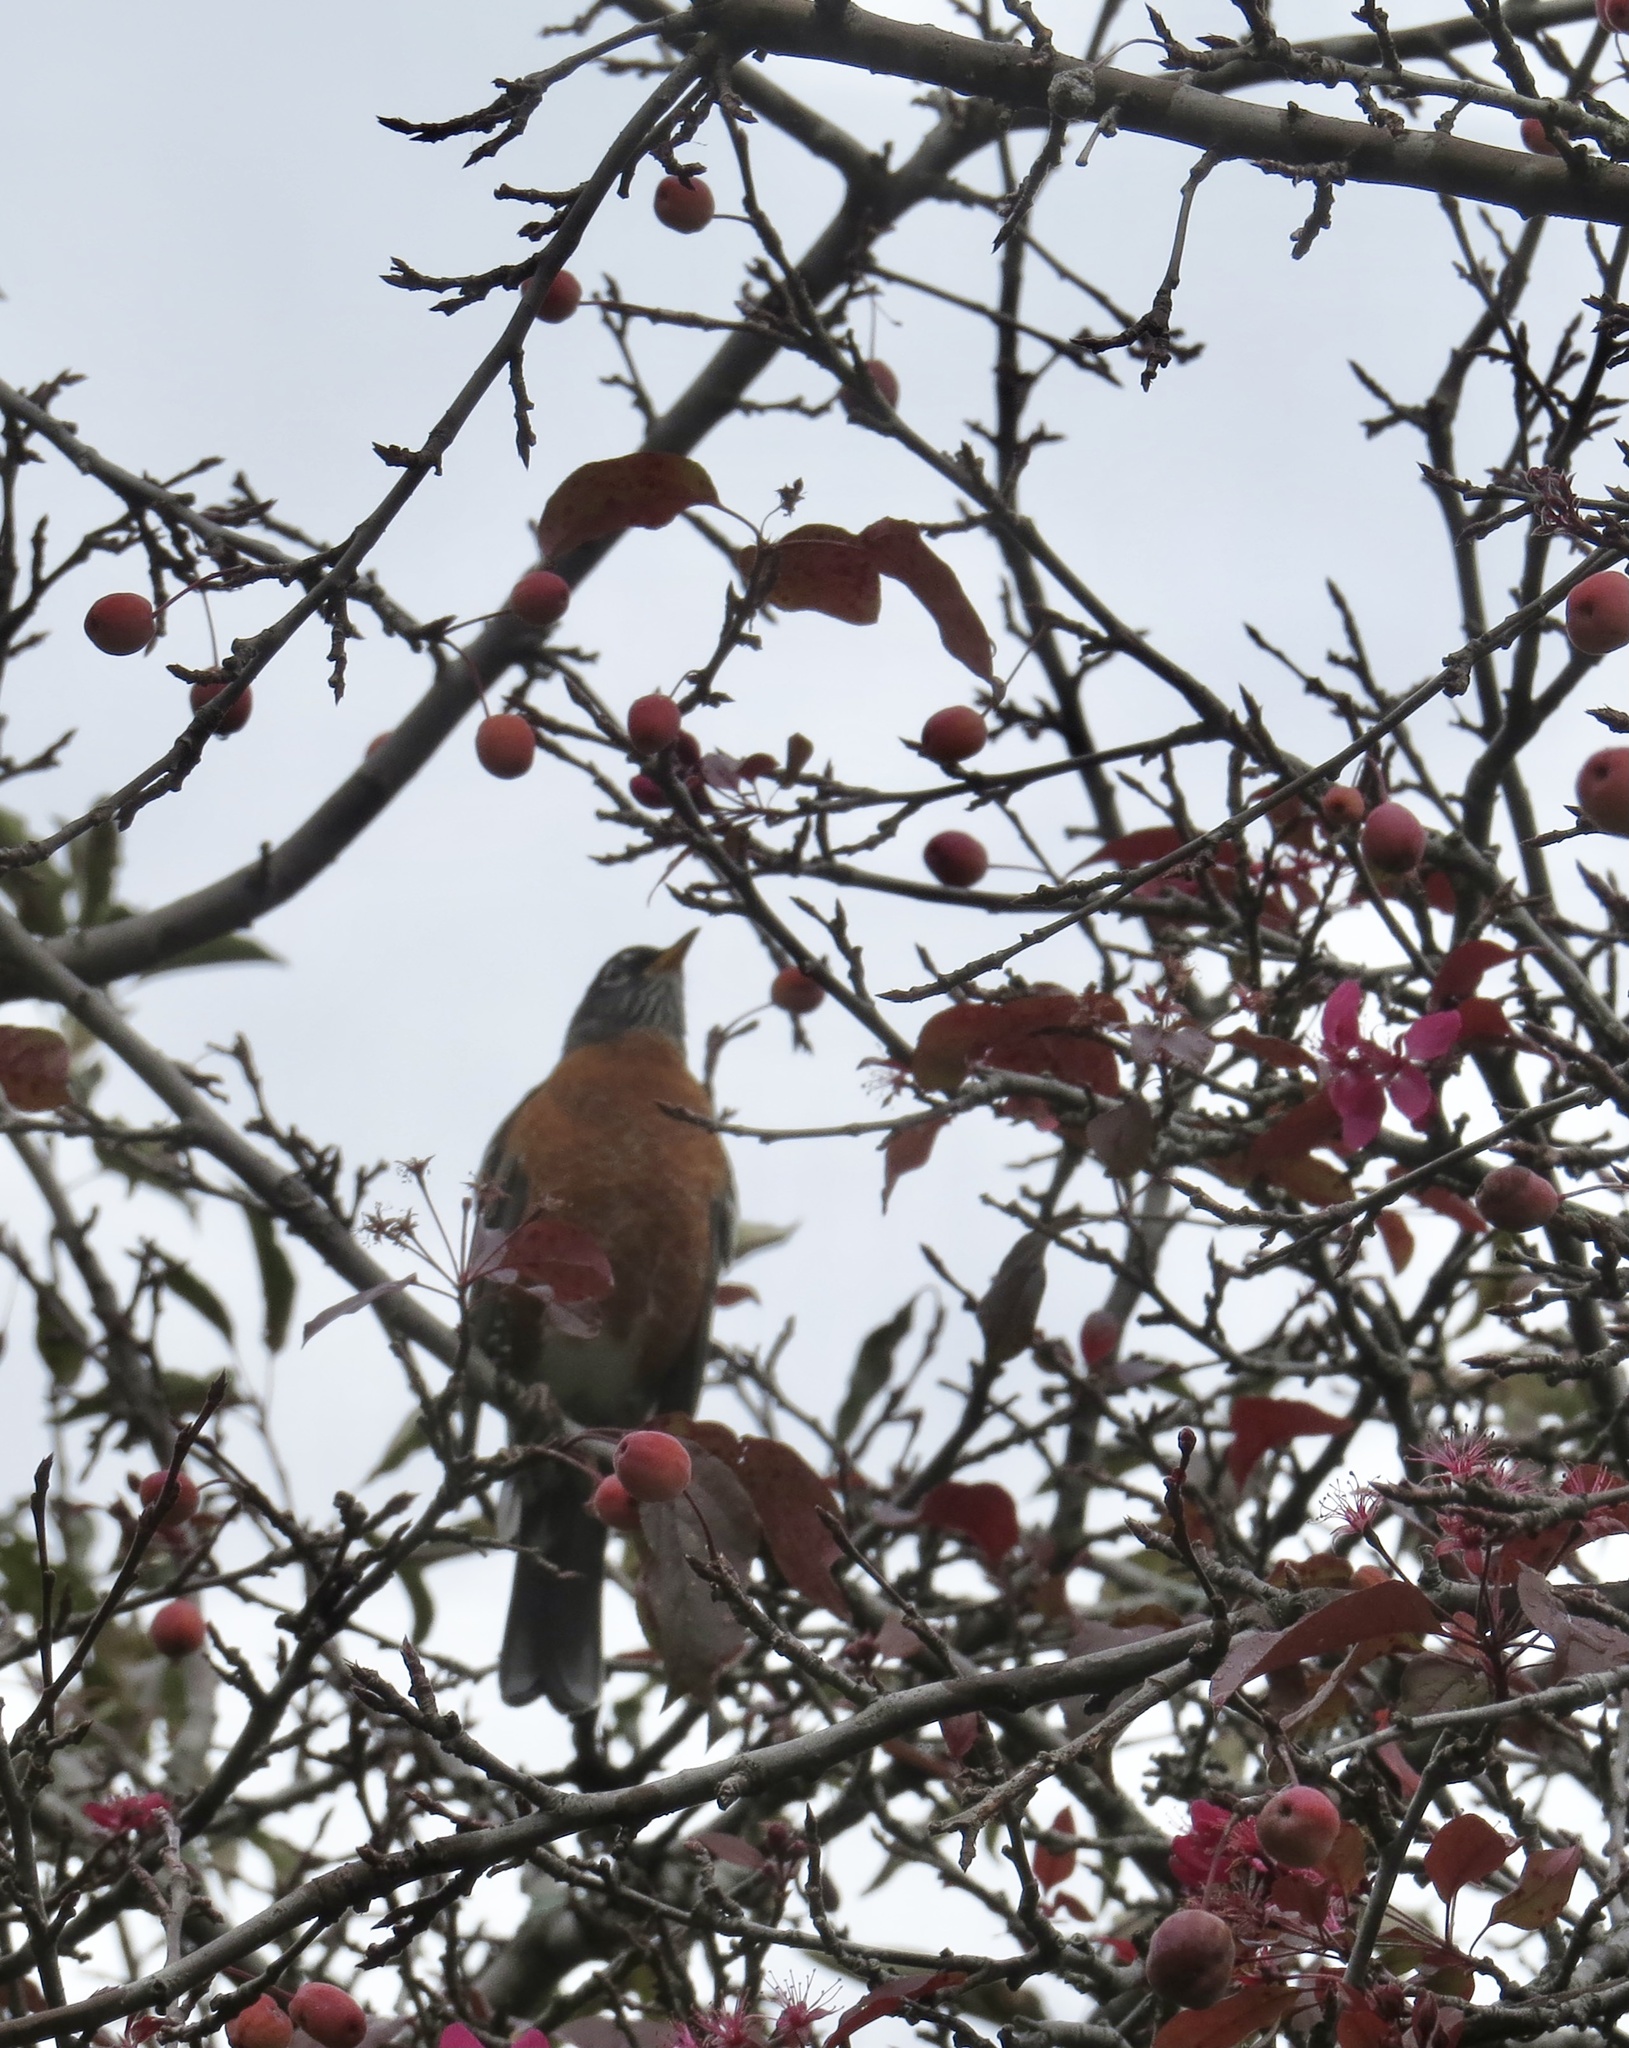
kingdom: Animalia
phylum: Chordata
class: Aves
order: Passeriformes
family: Turdidae
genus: Turdus
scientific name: Turdus migratorius
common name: American robin
